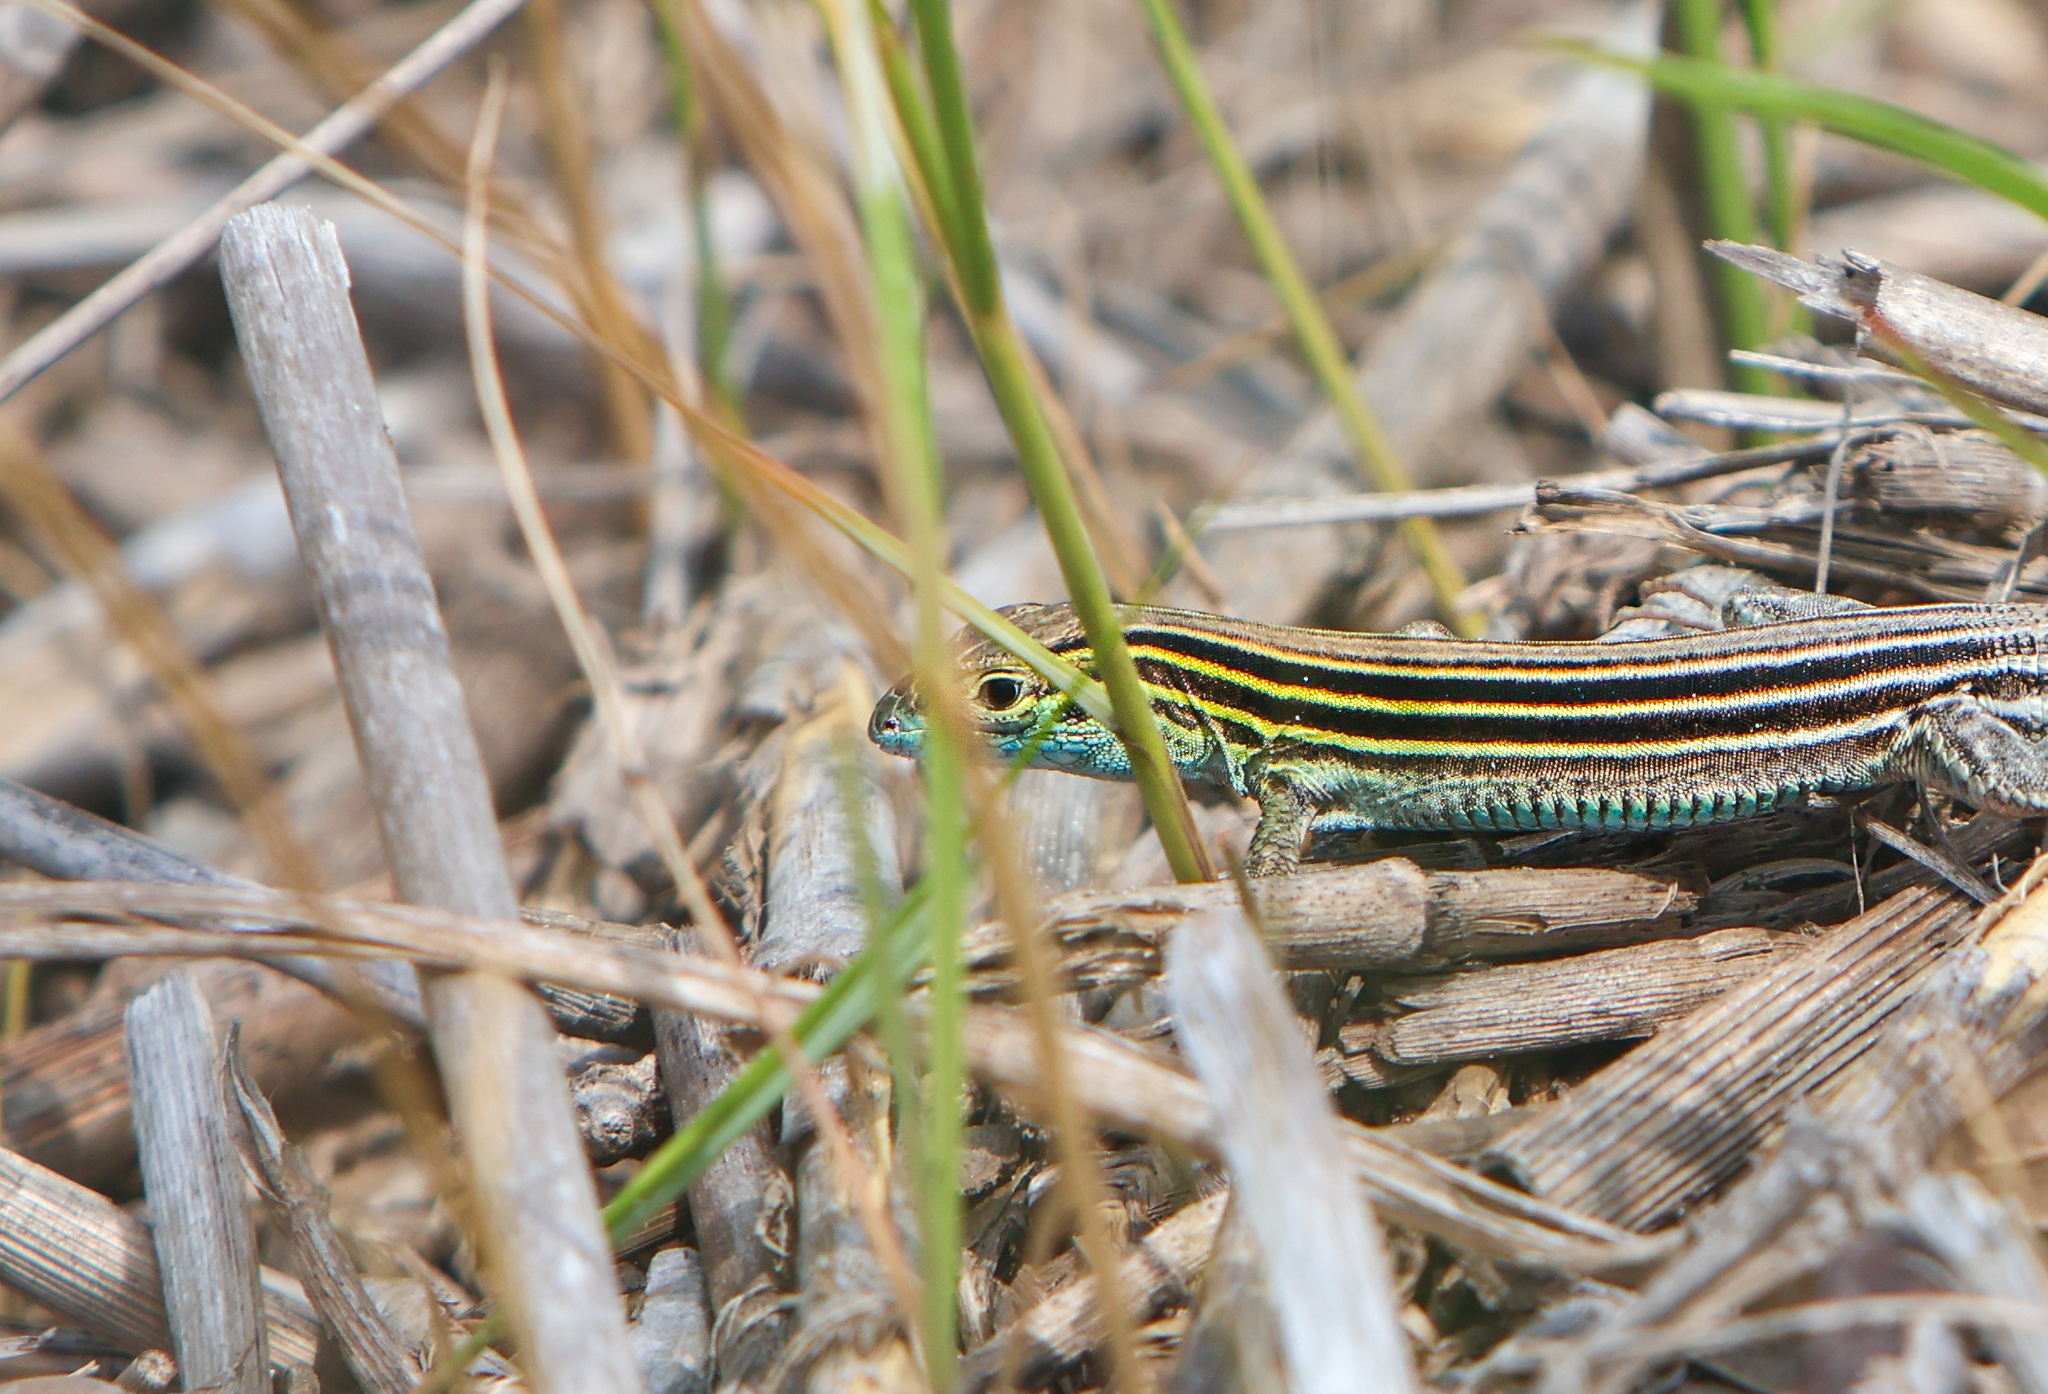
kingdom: Animalia
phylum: Chordata
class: Squamata
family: Teiidae
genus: Aspidoscelis
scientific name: Aspidoscelis sexlineatus
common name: Six-lined racerunner
